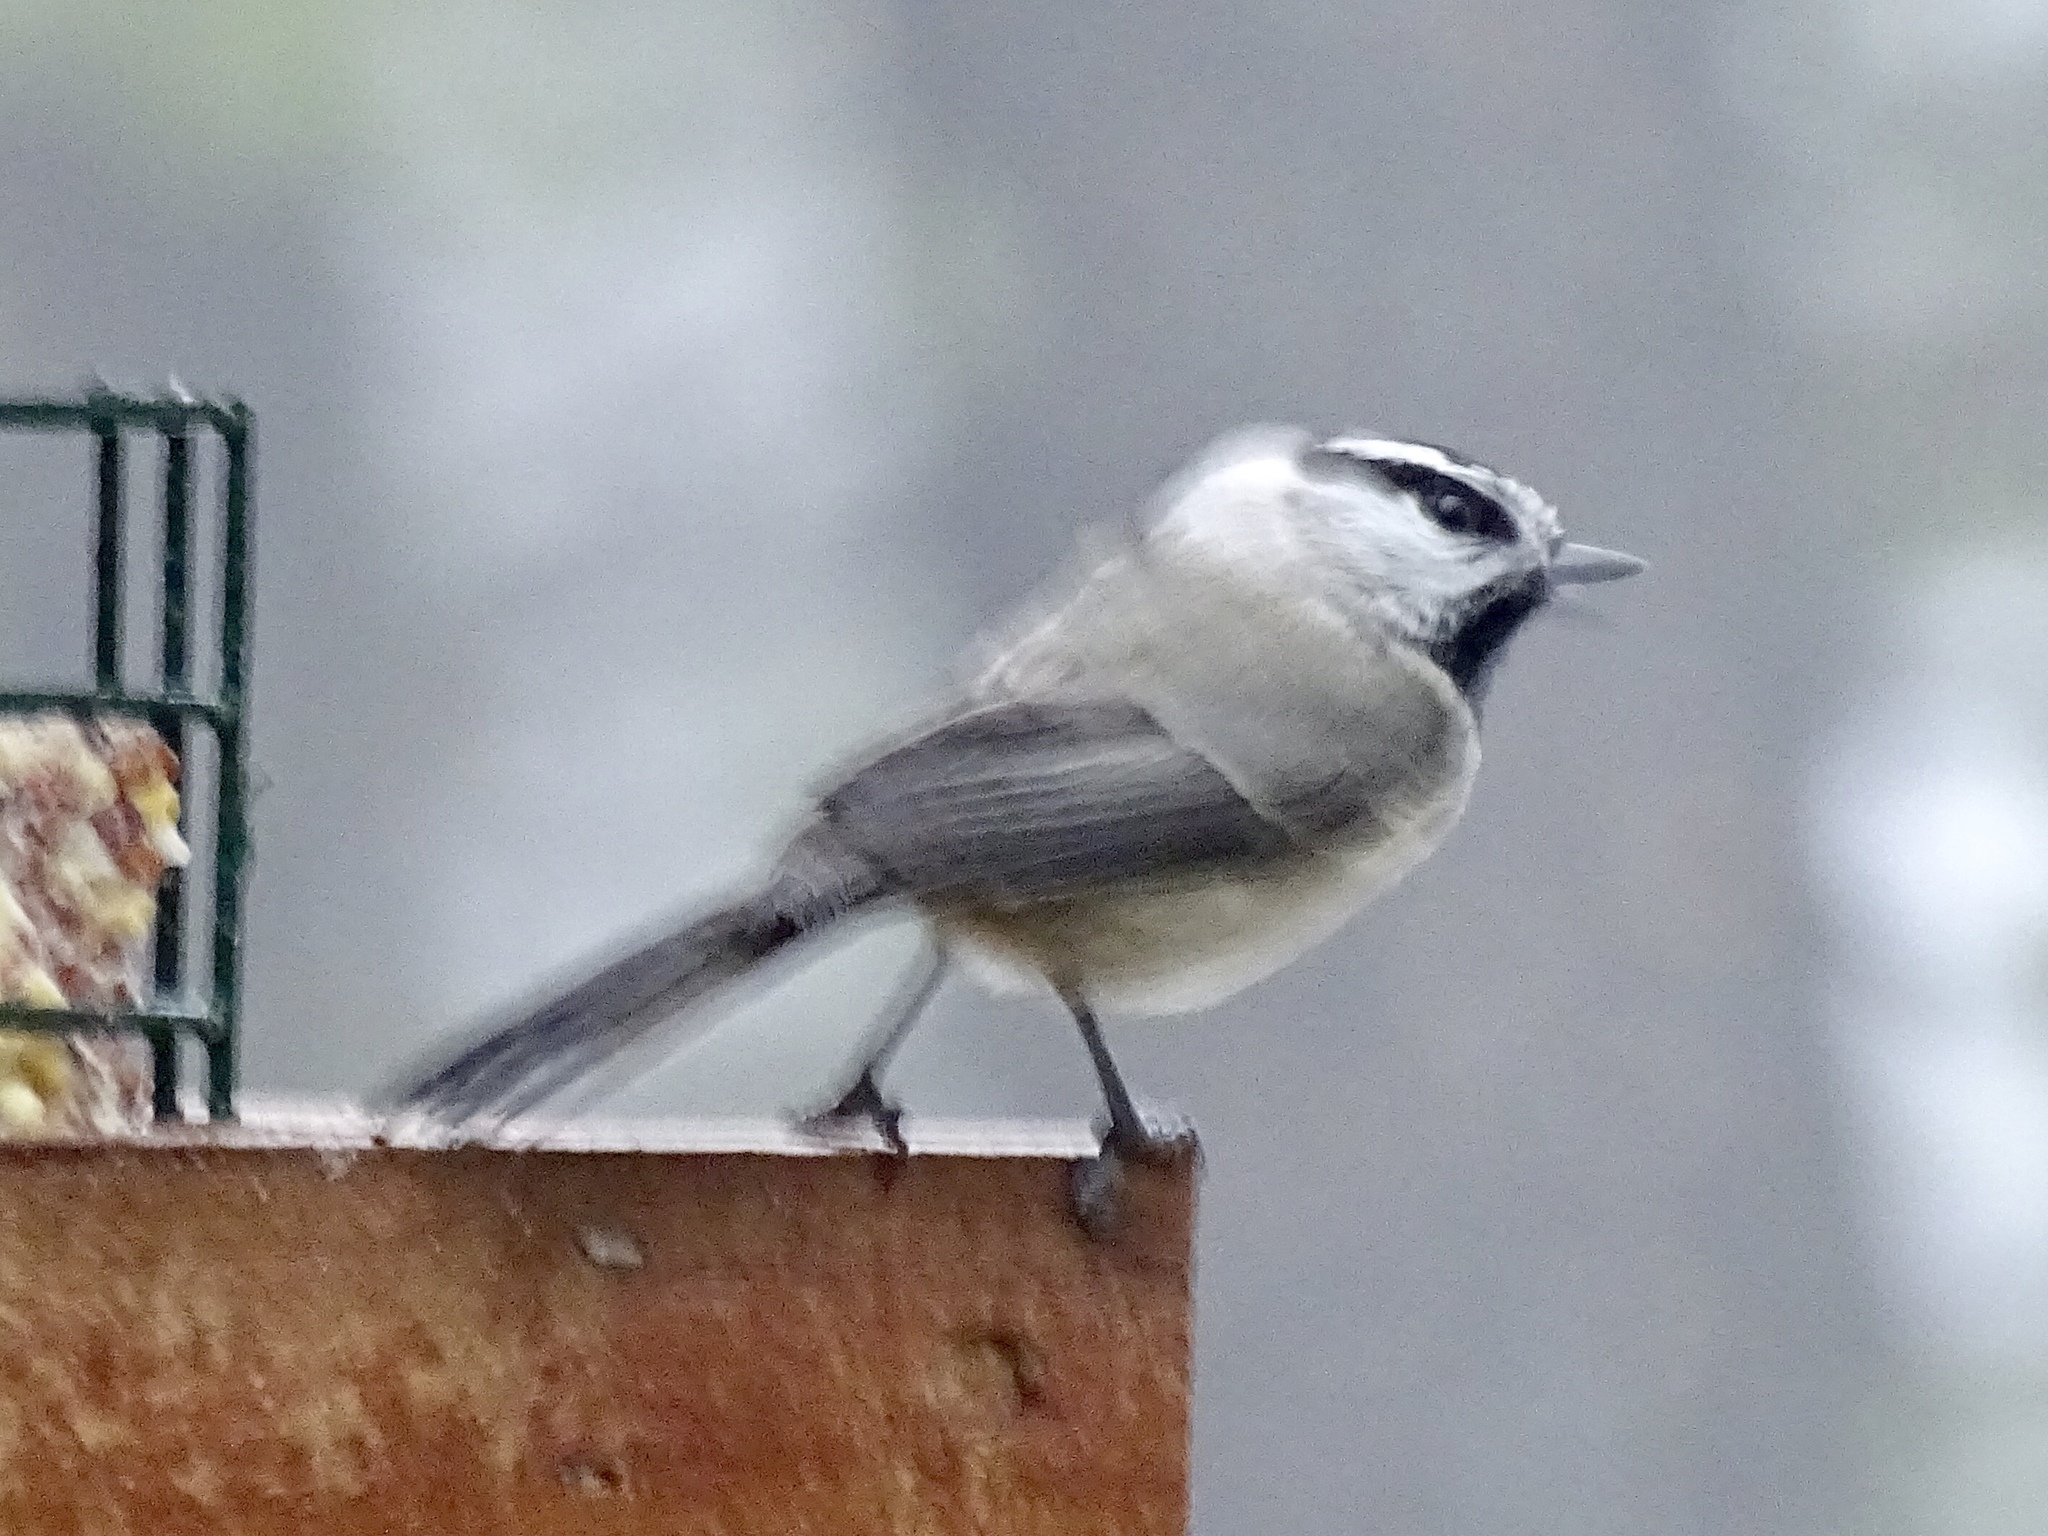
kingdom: Animalia
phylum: Chordata
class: Aves
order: Passeriformes
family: Paridae
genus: Poecile
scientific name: Poecile gambeli
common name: Mountain chickadee
